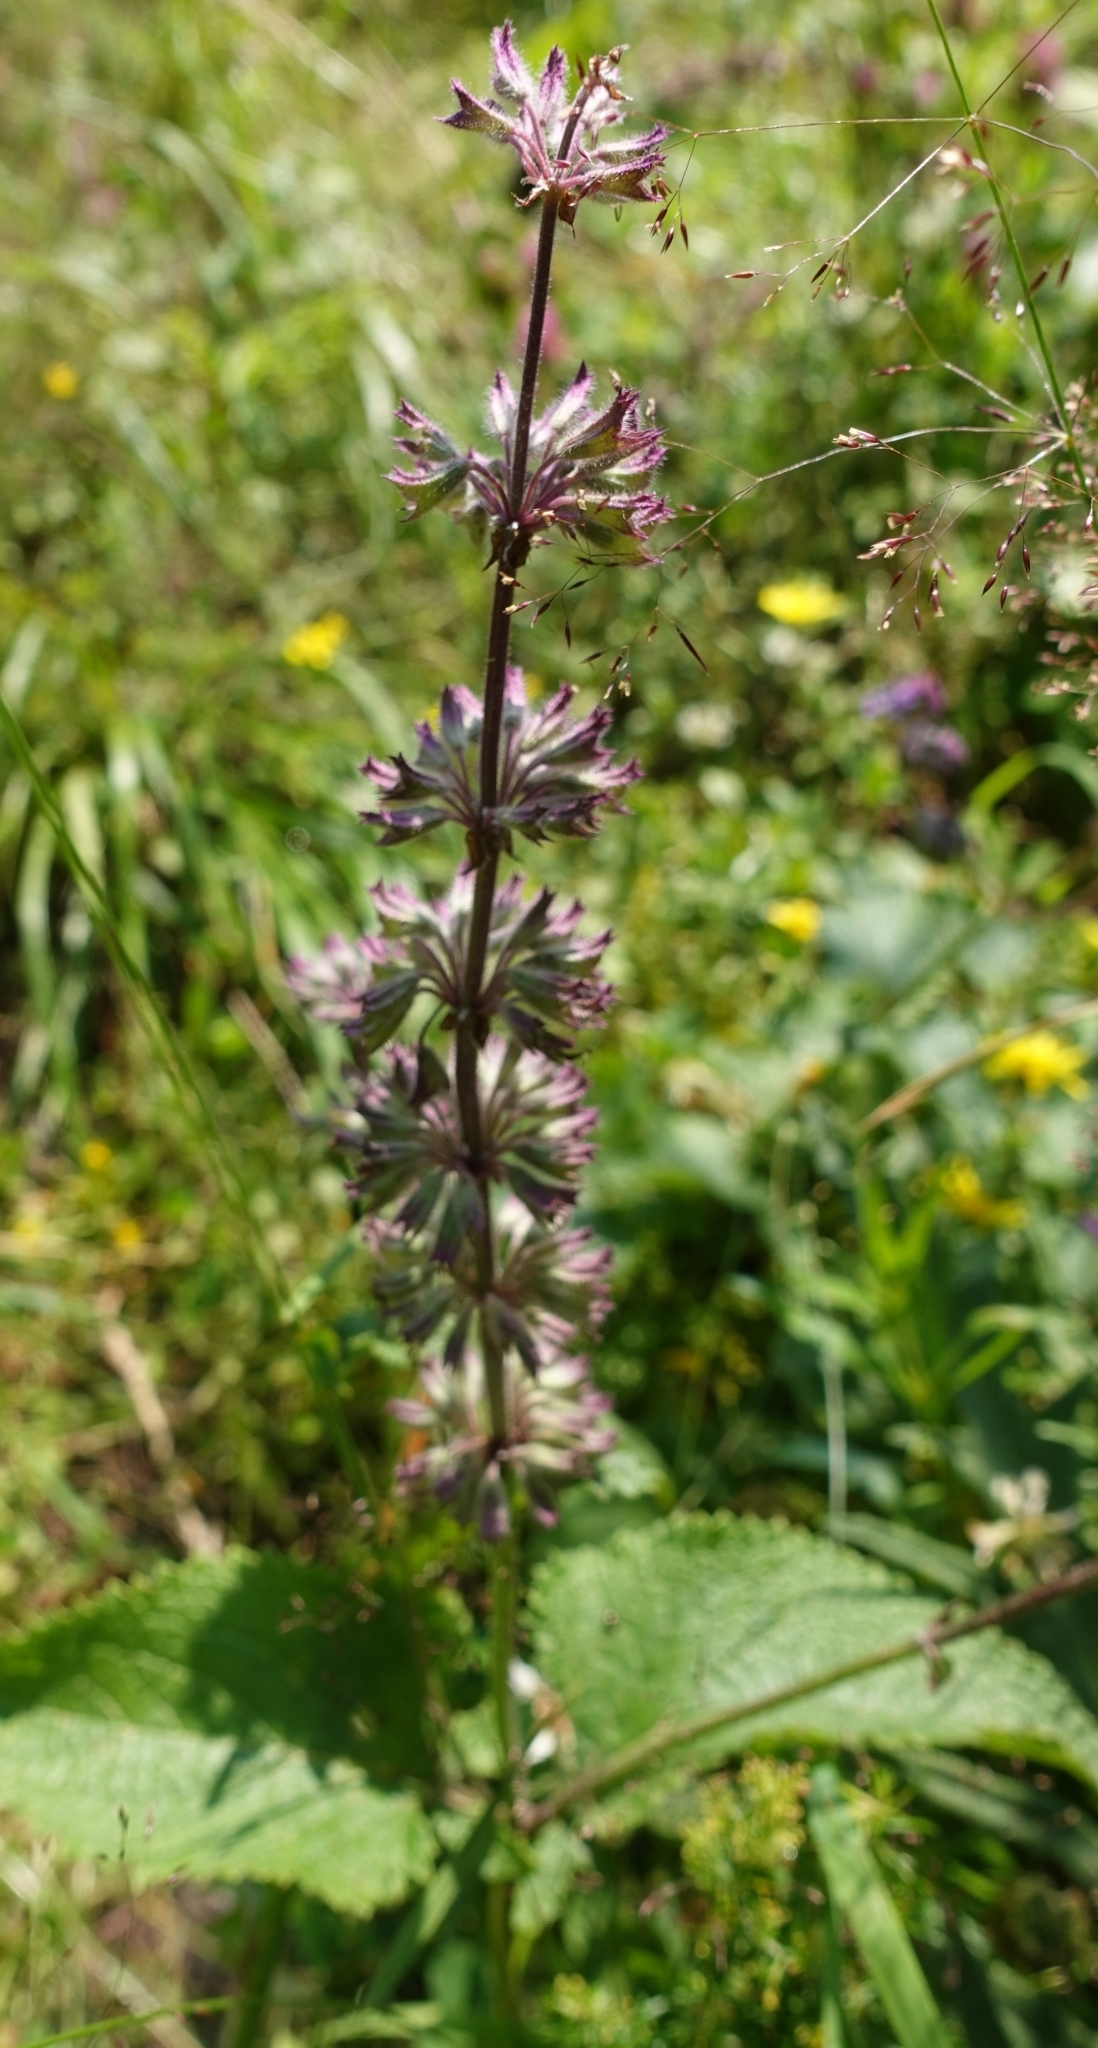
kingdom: Plantae
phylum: Tracheophyta
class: Magnoliopsida
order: Lamiales
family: Lamiaceae
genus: Salvia
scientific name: Salvia verticillata
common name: Whorled clary
